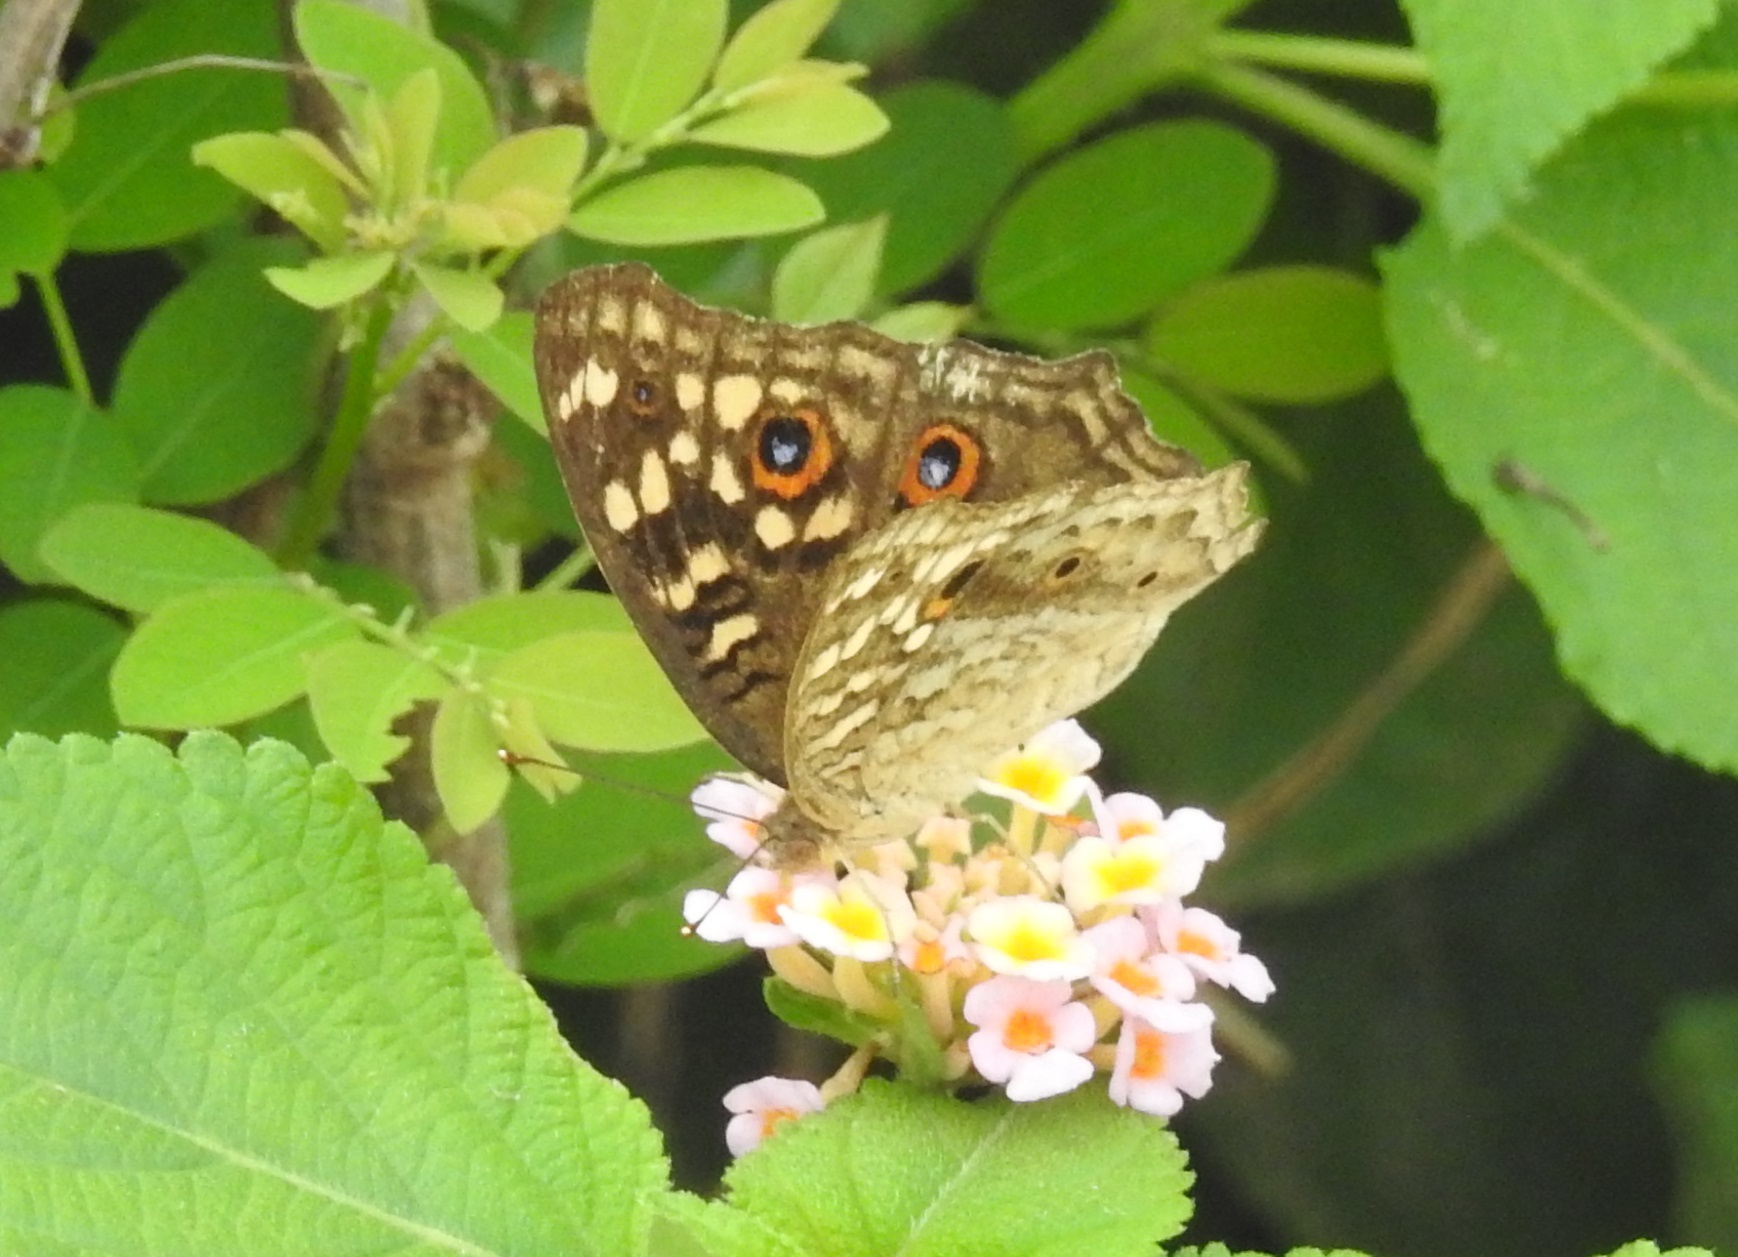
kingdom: Animalia
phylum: Arthropoda
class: Insecta
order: Lepidoptera
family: Nymphalidae
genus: Junonia
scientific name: Junonia lemonias
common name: Lemon pansy
